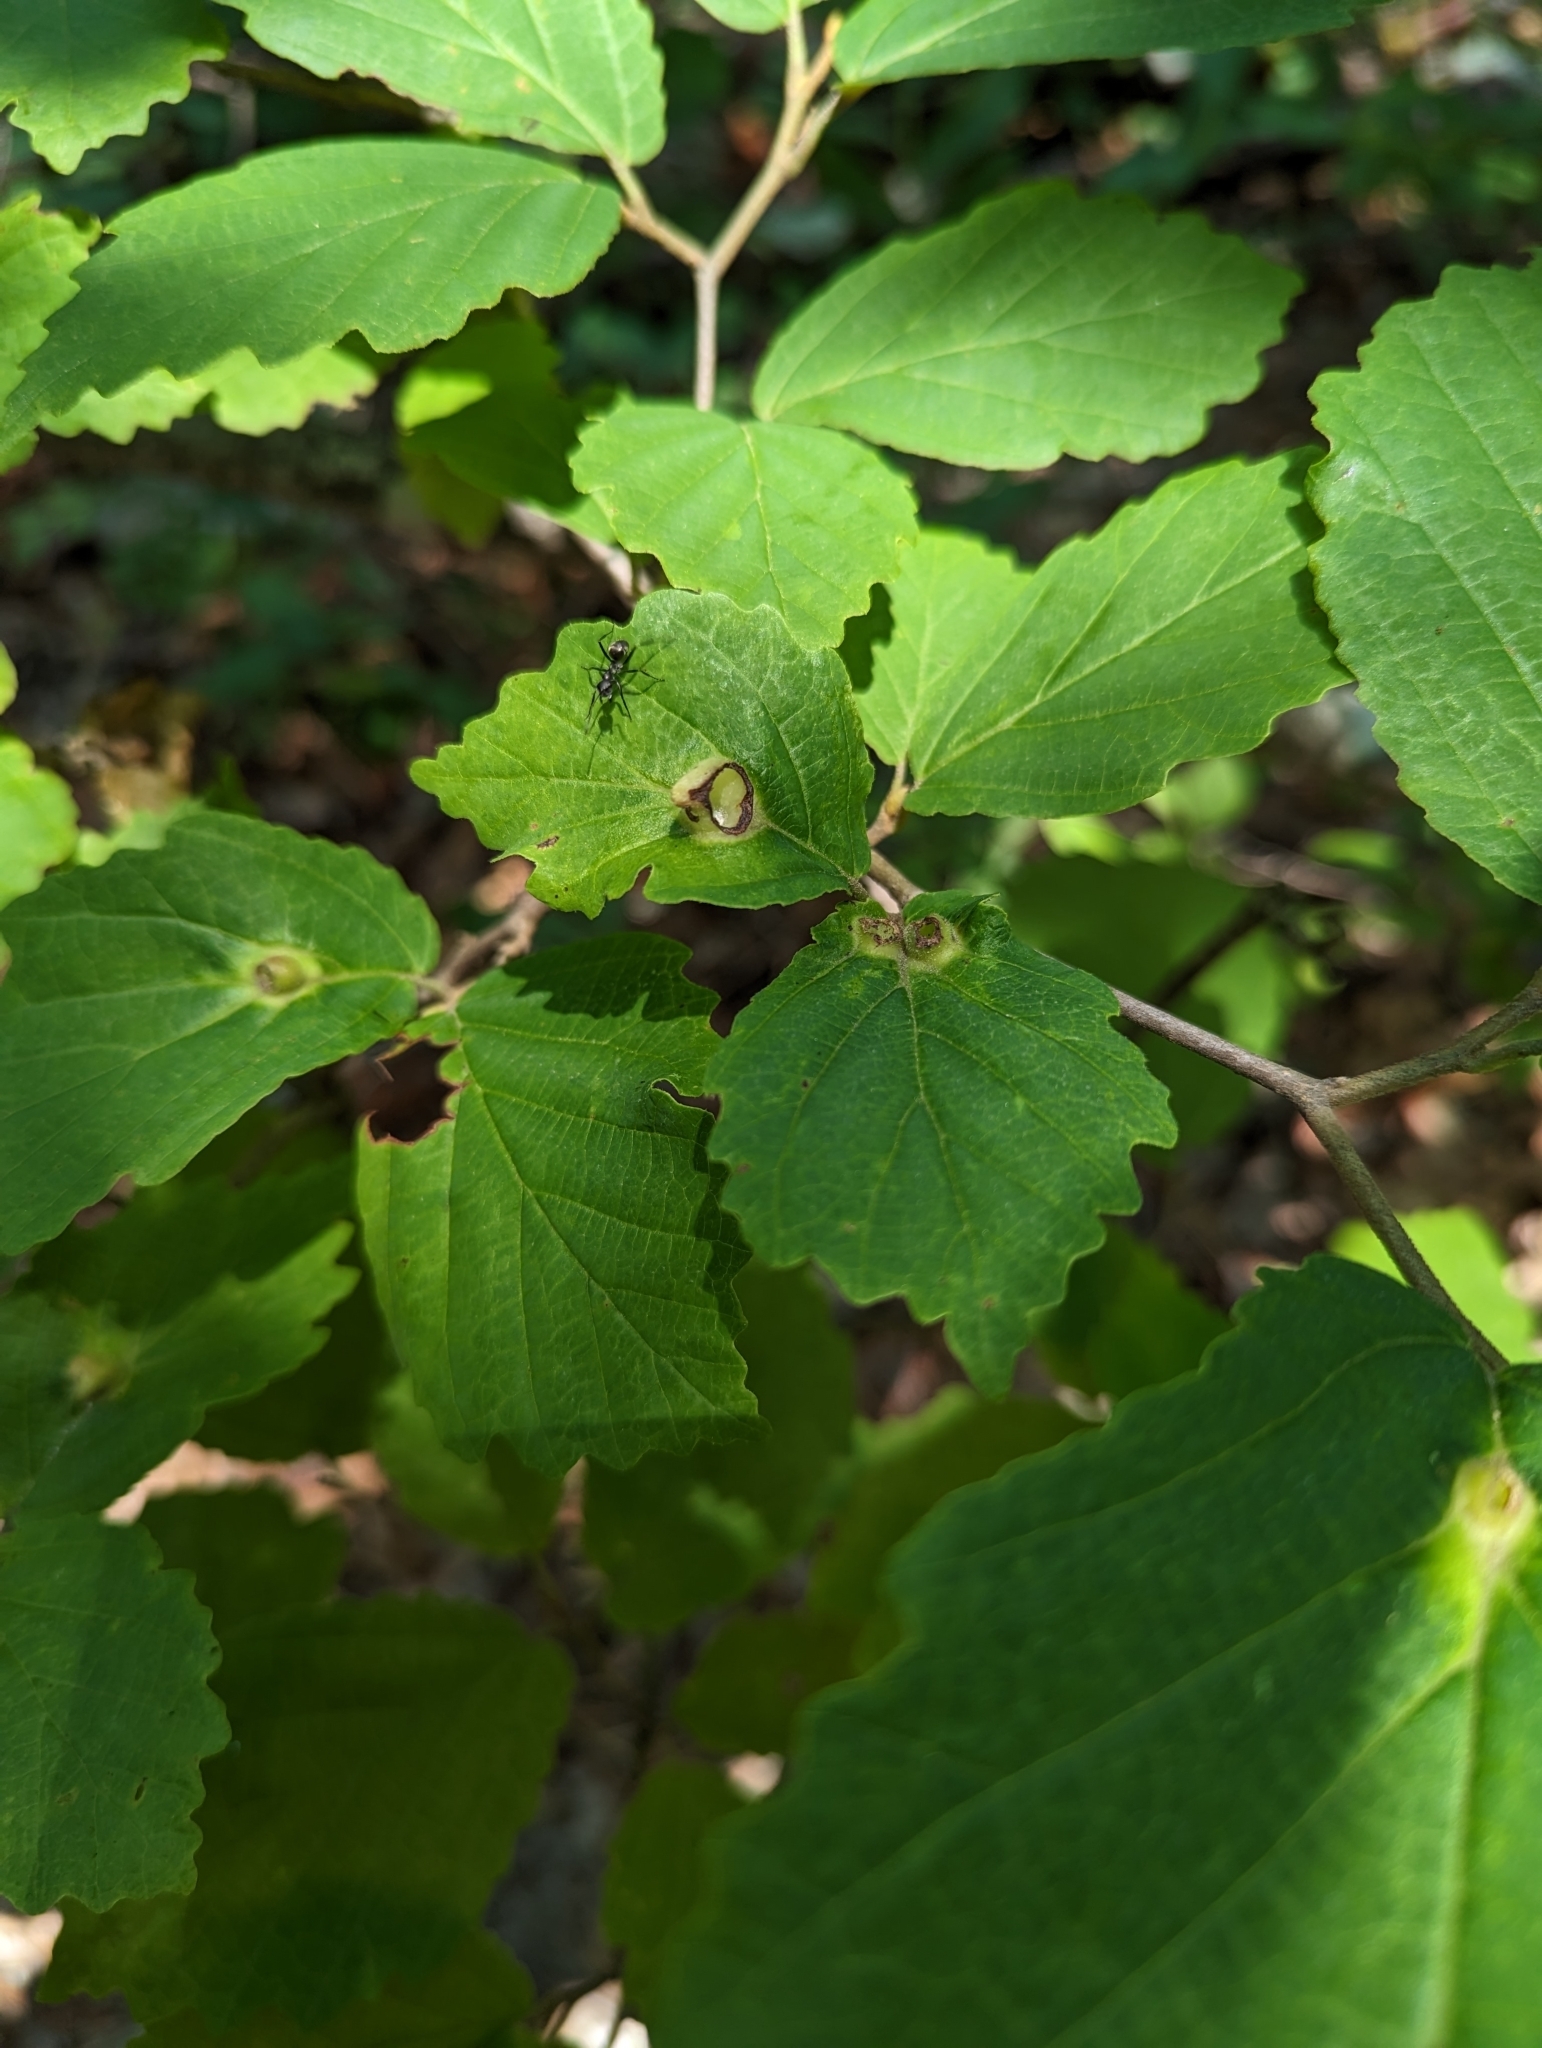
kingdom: Animalia
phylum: Arthropoda
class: Insecta
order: Hemiptera
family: Aphididae
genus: Hormaphis
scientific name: Hormaphis hamamelidis
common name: Witch-hazel cone gall aphid
